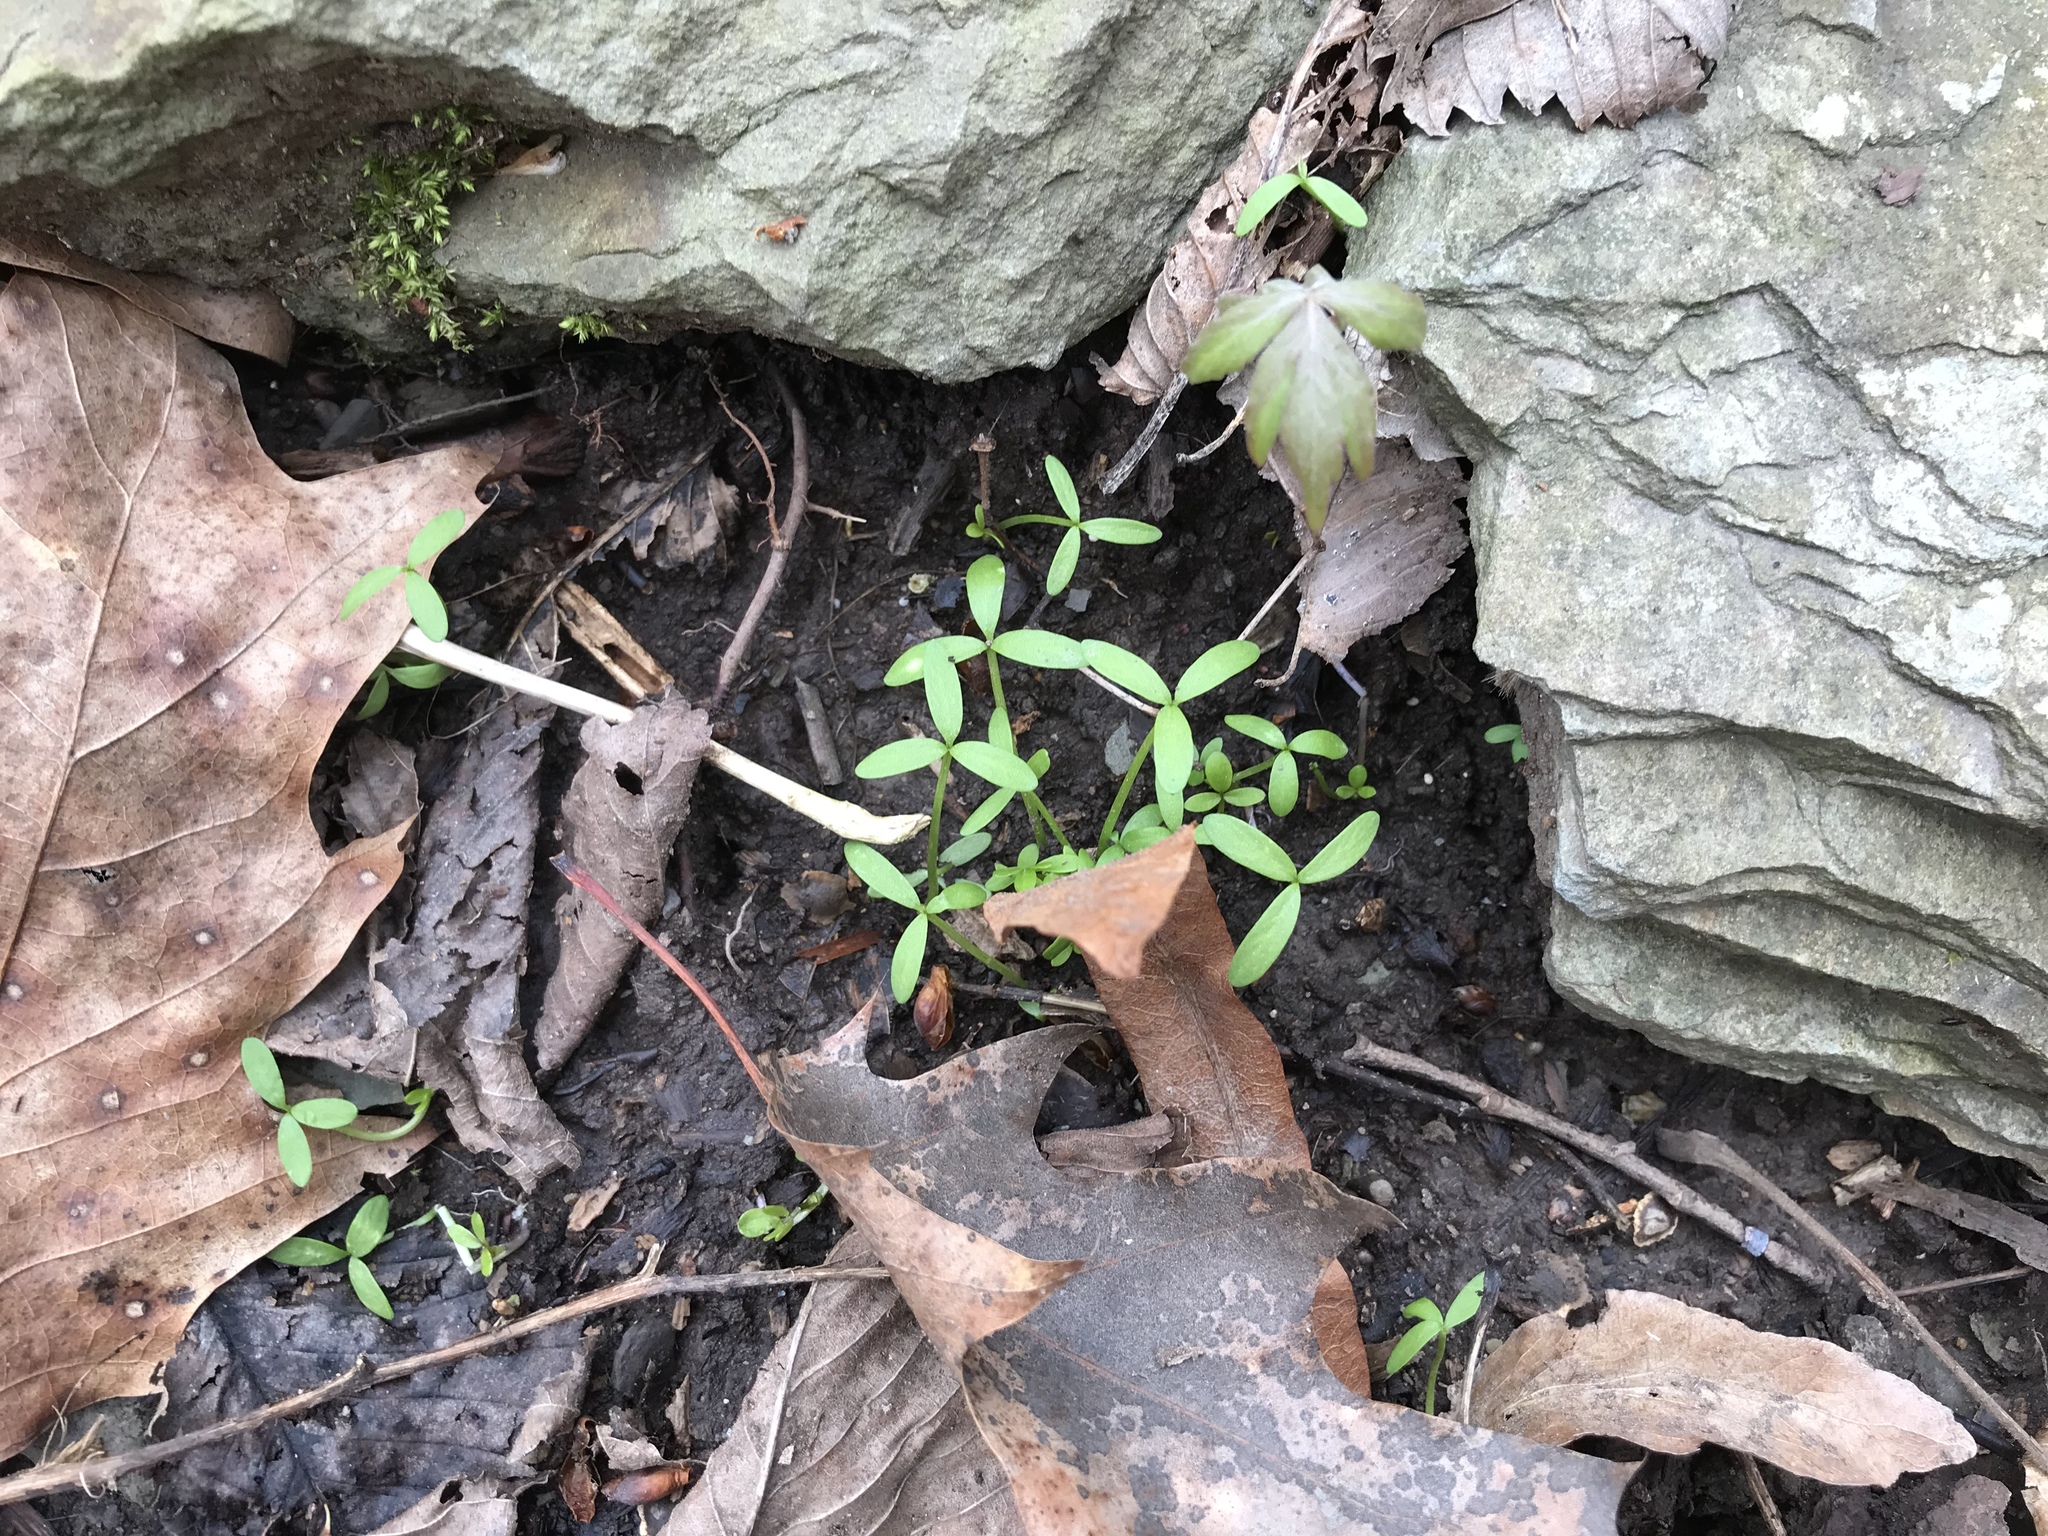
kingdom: Plantae
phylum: Tracheophyta
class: Magnoliopsida
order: Brassicales
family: Limnanthaceae
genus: Floerkea
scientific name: Floerkea proserpinacoides
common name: False mermaid
